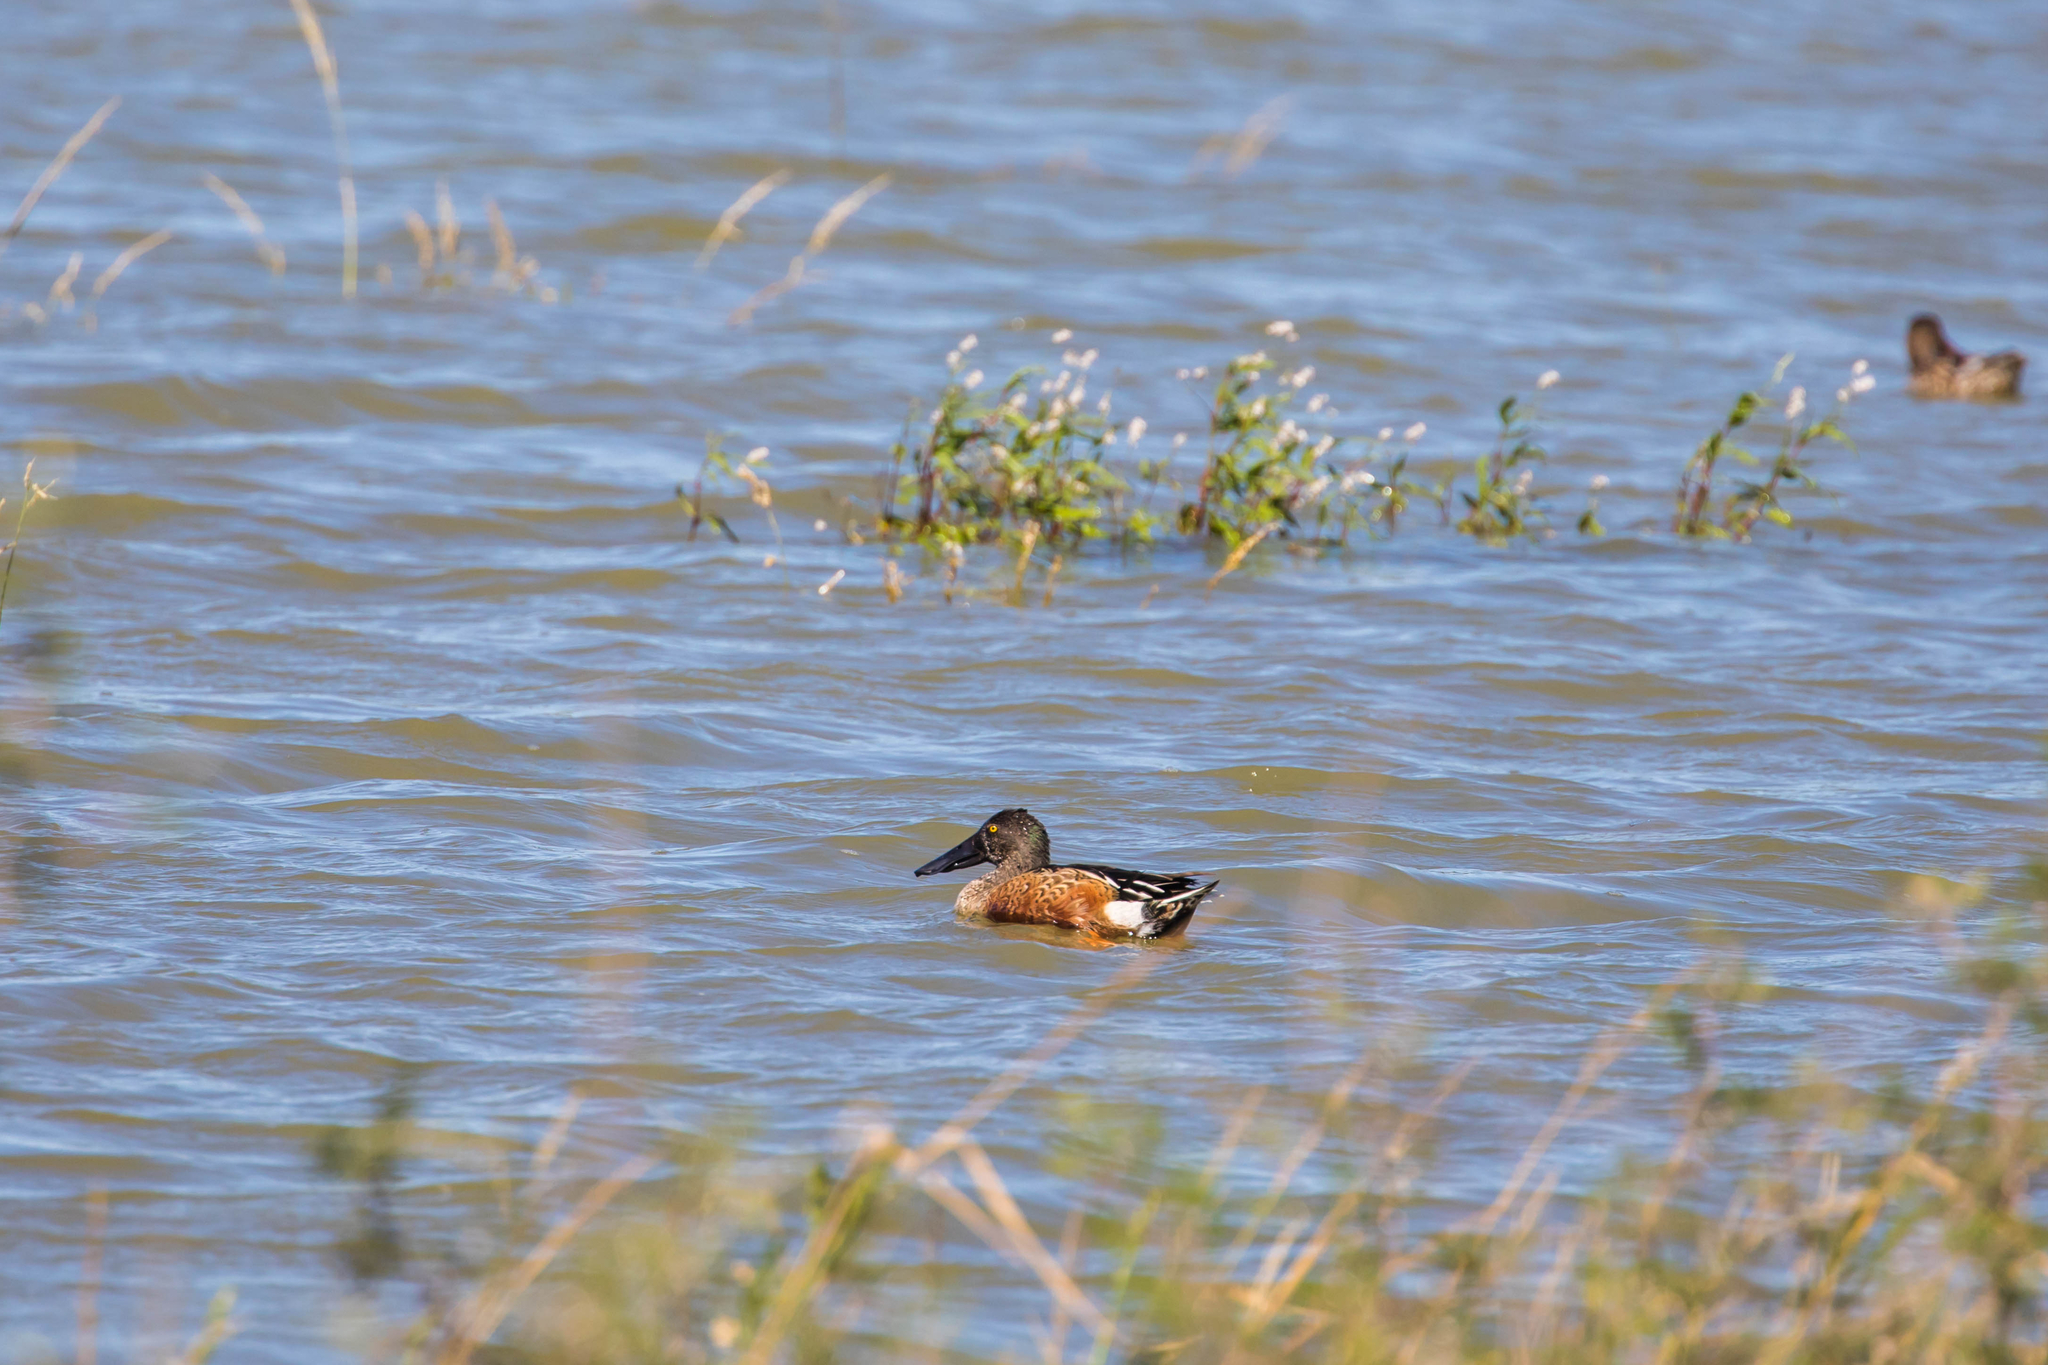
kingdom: Animalia
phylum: Chordata
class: Aves
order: Anseriformes
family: Anatidae
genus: Spatula
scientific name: Spatula clypeata
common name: Northern shoveler
